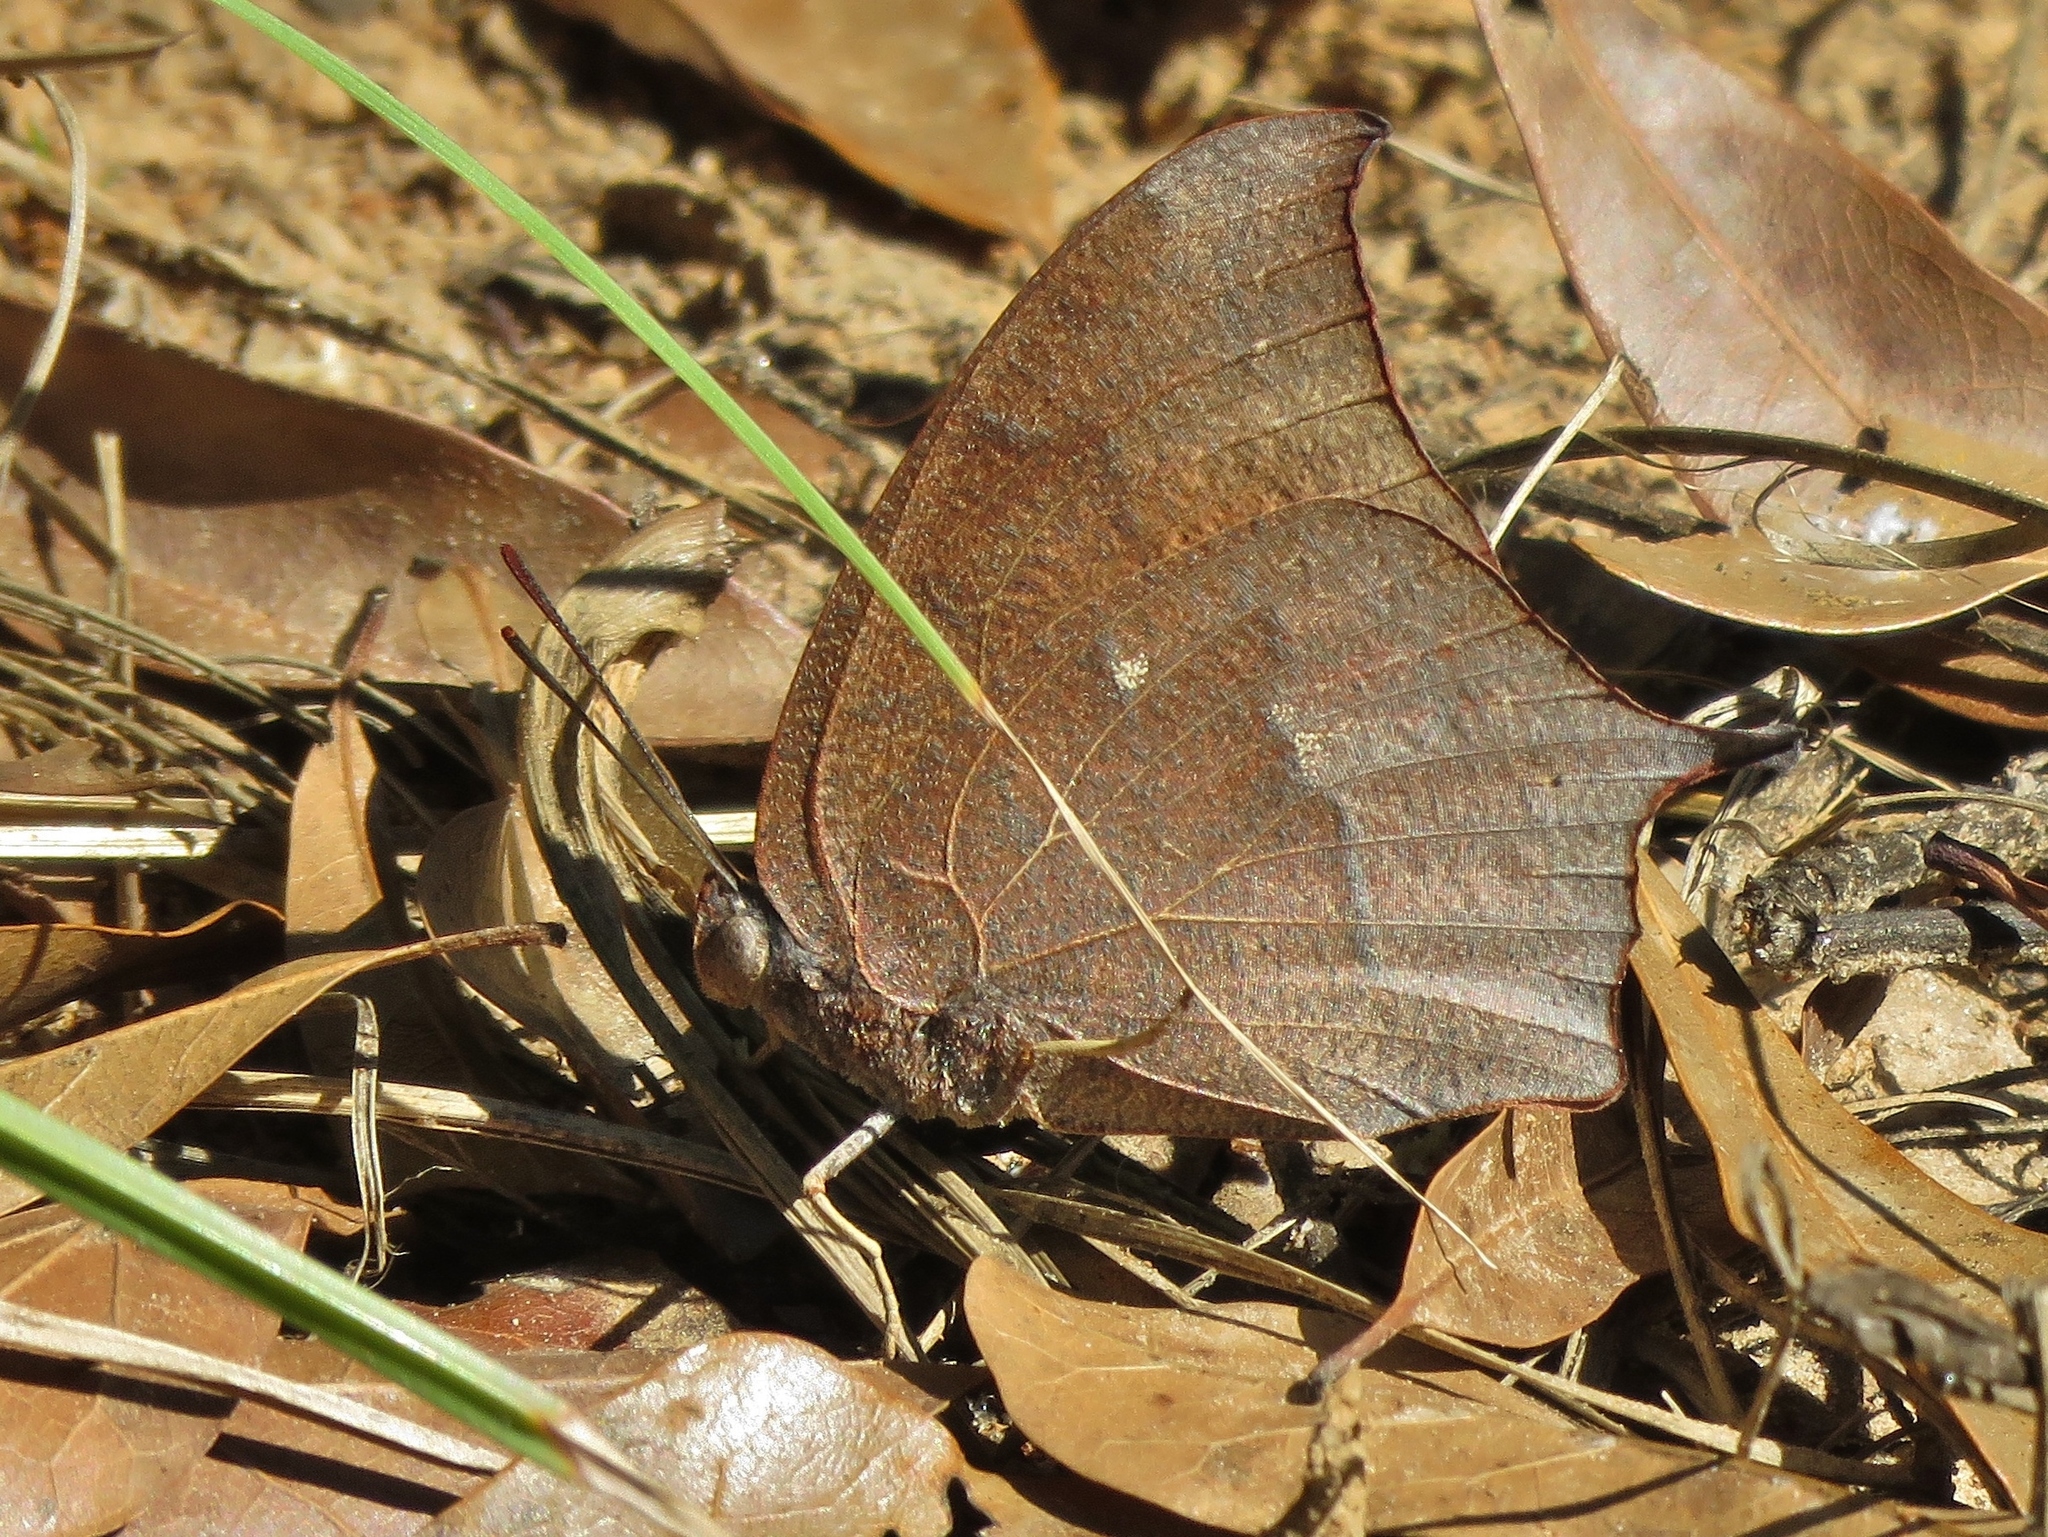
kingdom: Animalia
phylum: Arthropoda
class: Insecta
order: Lepidoptera
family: Nymphalidae
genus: Anaea
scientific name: Anaea andria
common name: Goatweed leafwing
